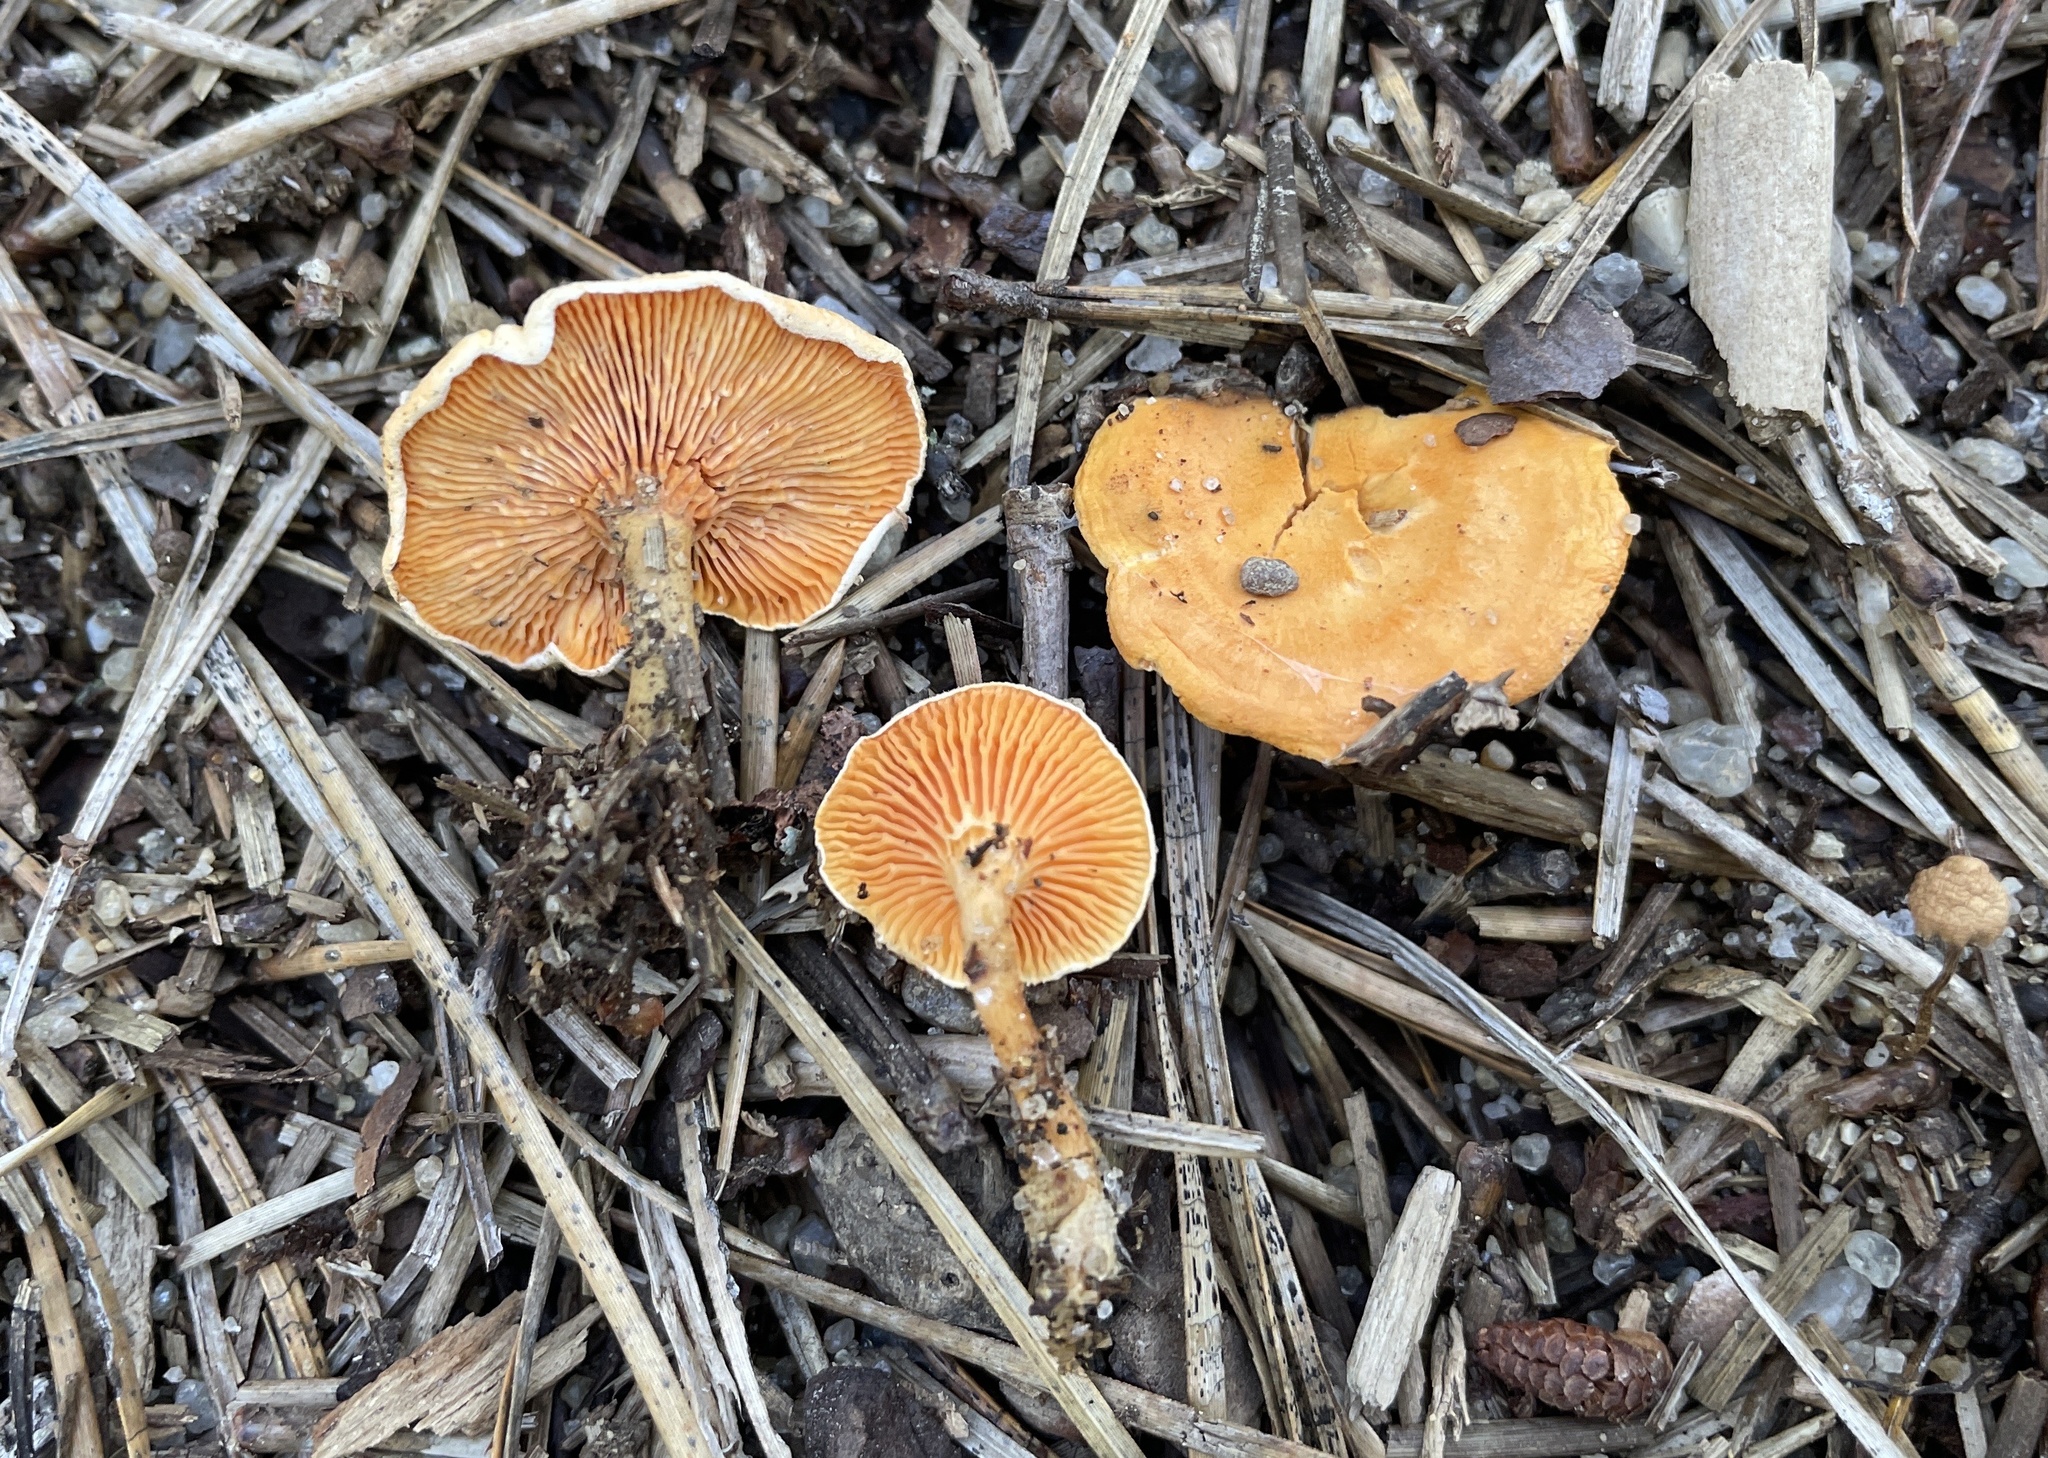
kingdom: Fungi
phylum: Basidiomycota
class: Agaricomycetes
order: Boletales
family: Hygrophoropsidaceae
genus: Hygrophoropsis
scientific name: Hygrophoropsis aurantiaca
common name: False chanterelle
